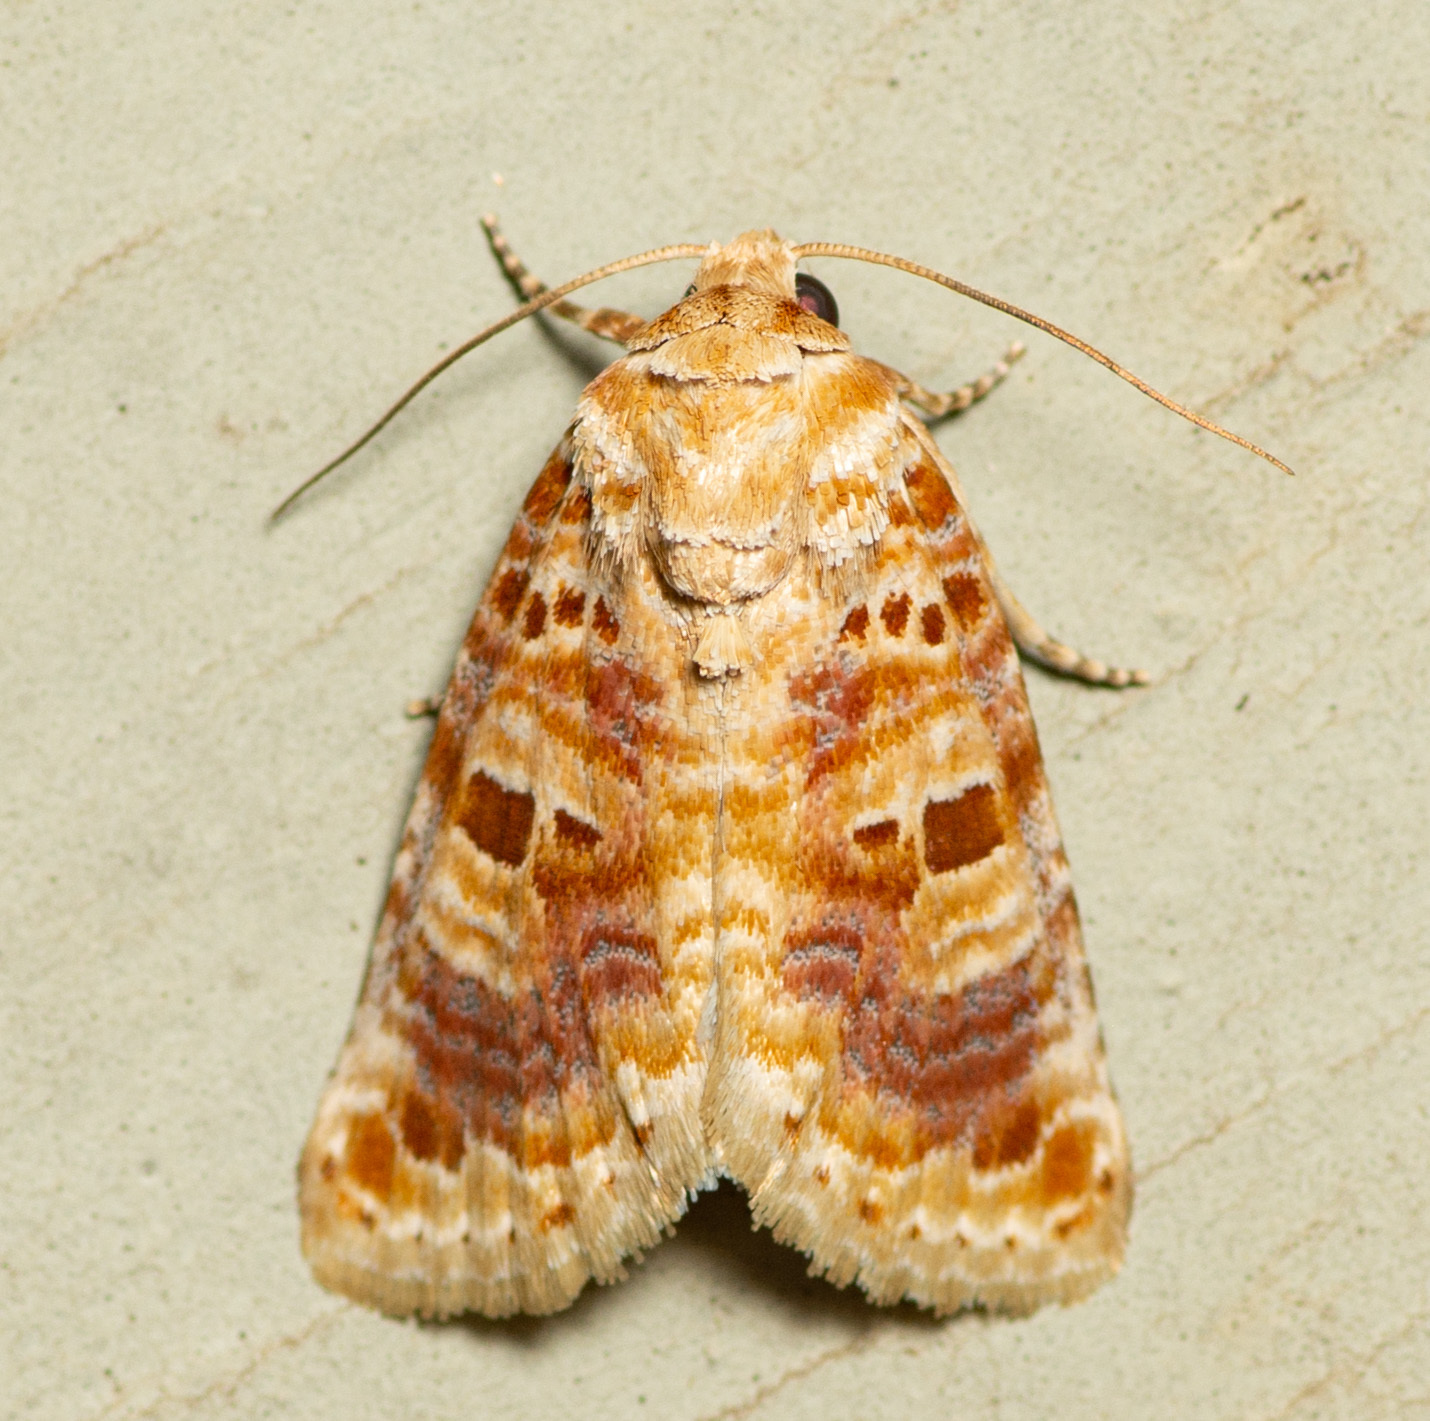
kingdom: Animalia
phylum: Arthropoda
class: Insecta
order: Lepidoptera
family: Noctuidae
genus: Diastema
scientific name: Diastema tigris
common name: Lantana moth
